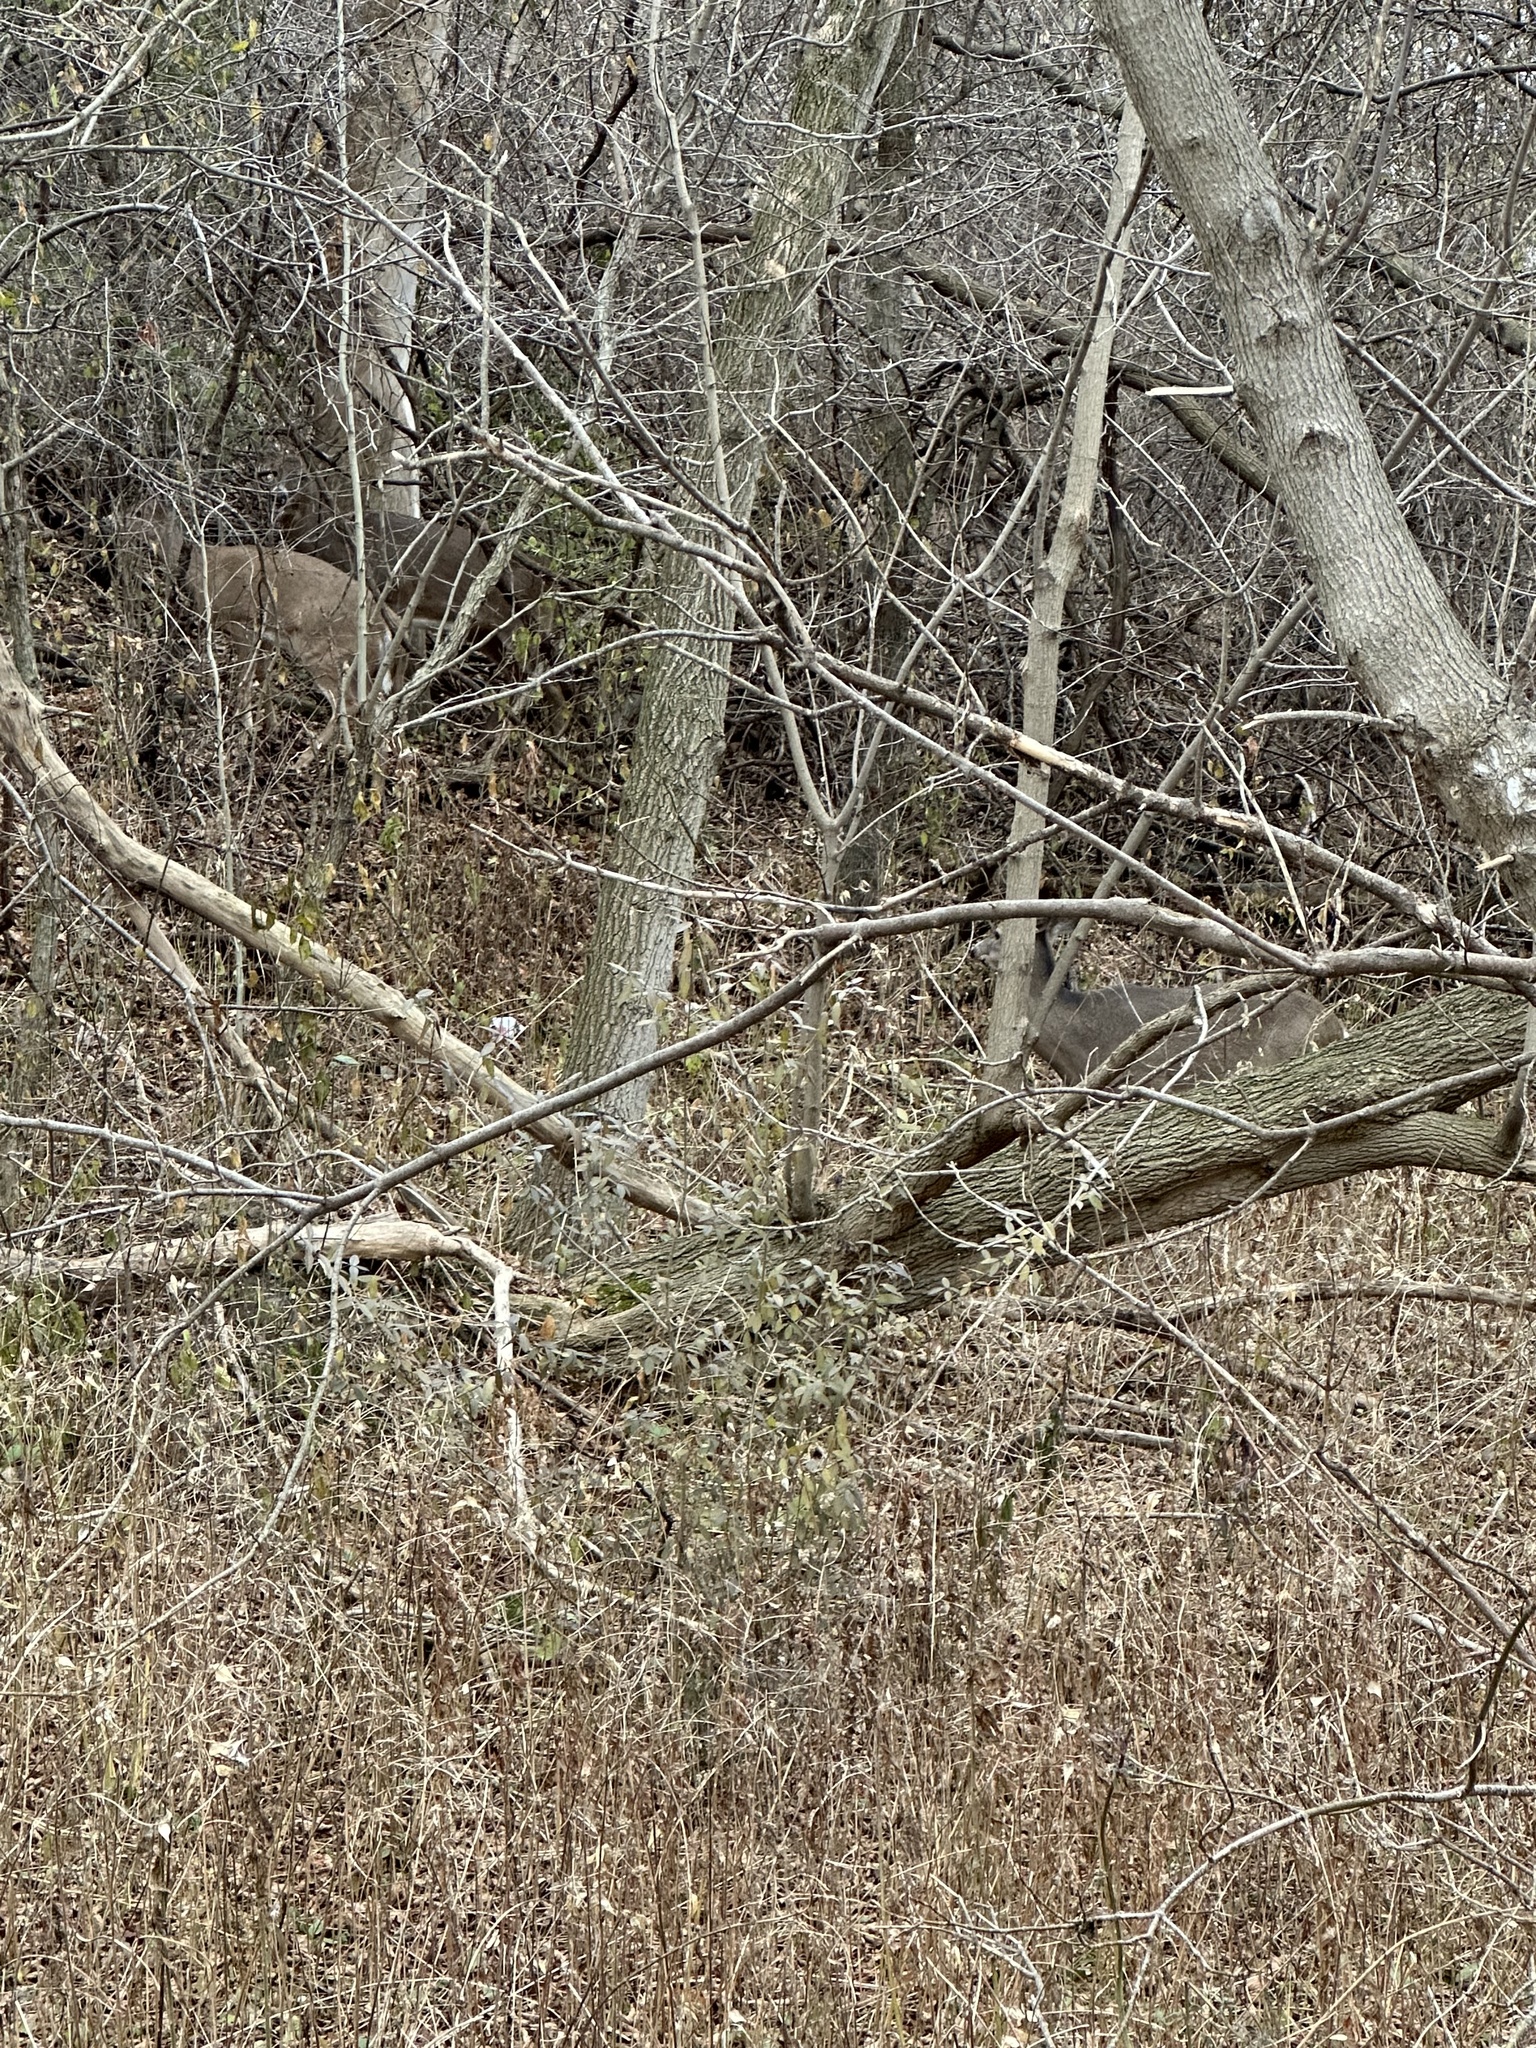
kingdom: Animalia
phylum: Chordata
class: Mammalia
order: Artiodactyla
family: Cervidae
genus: Odocoileus
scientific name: Odocoileus virginianus
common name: White-tailed deer
